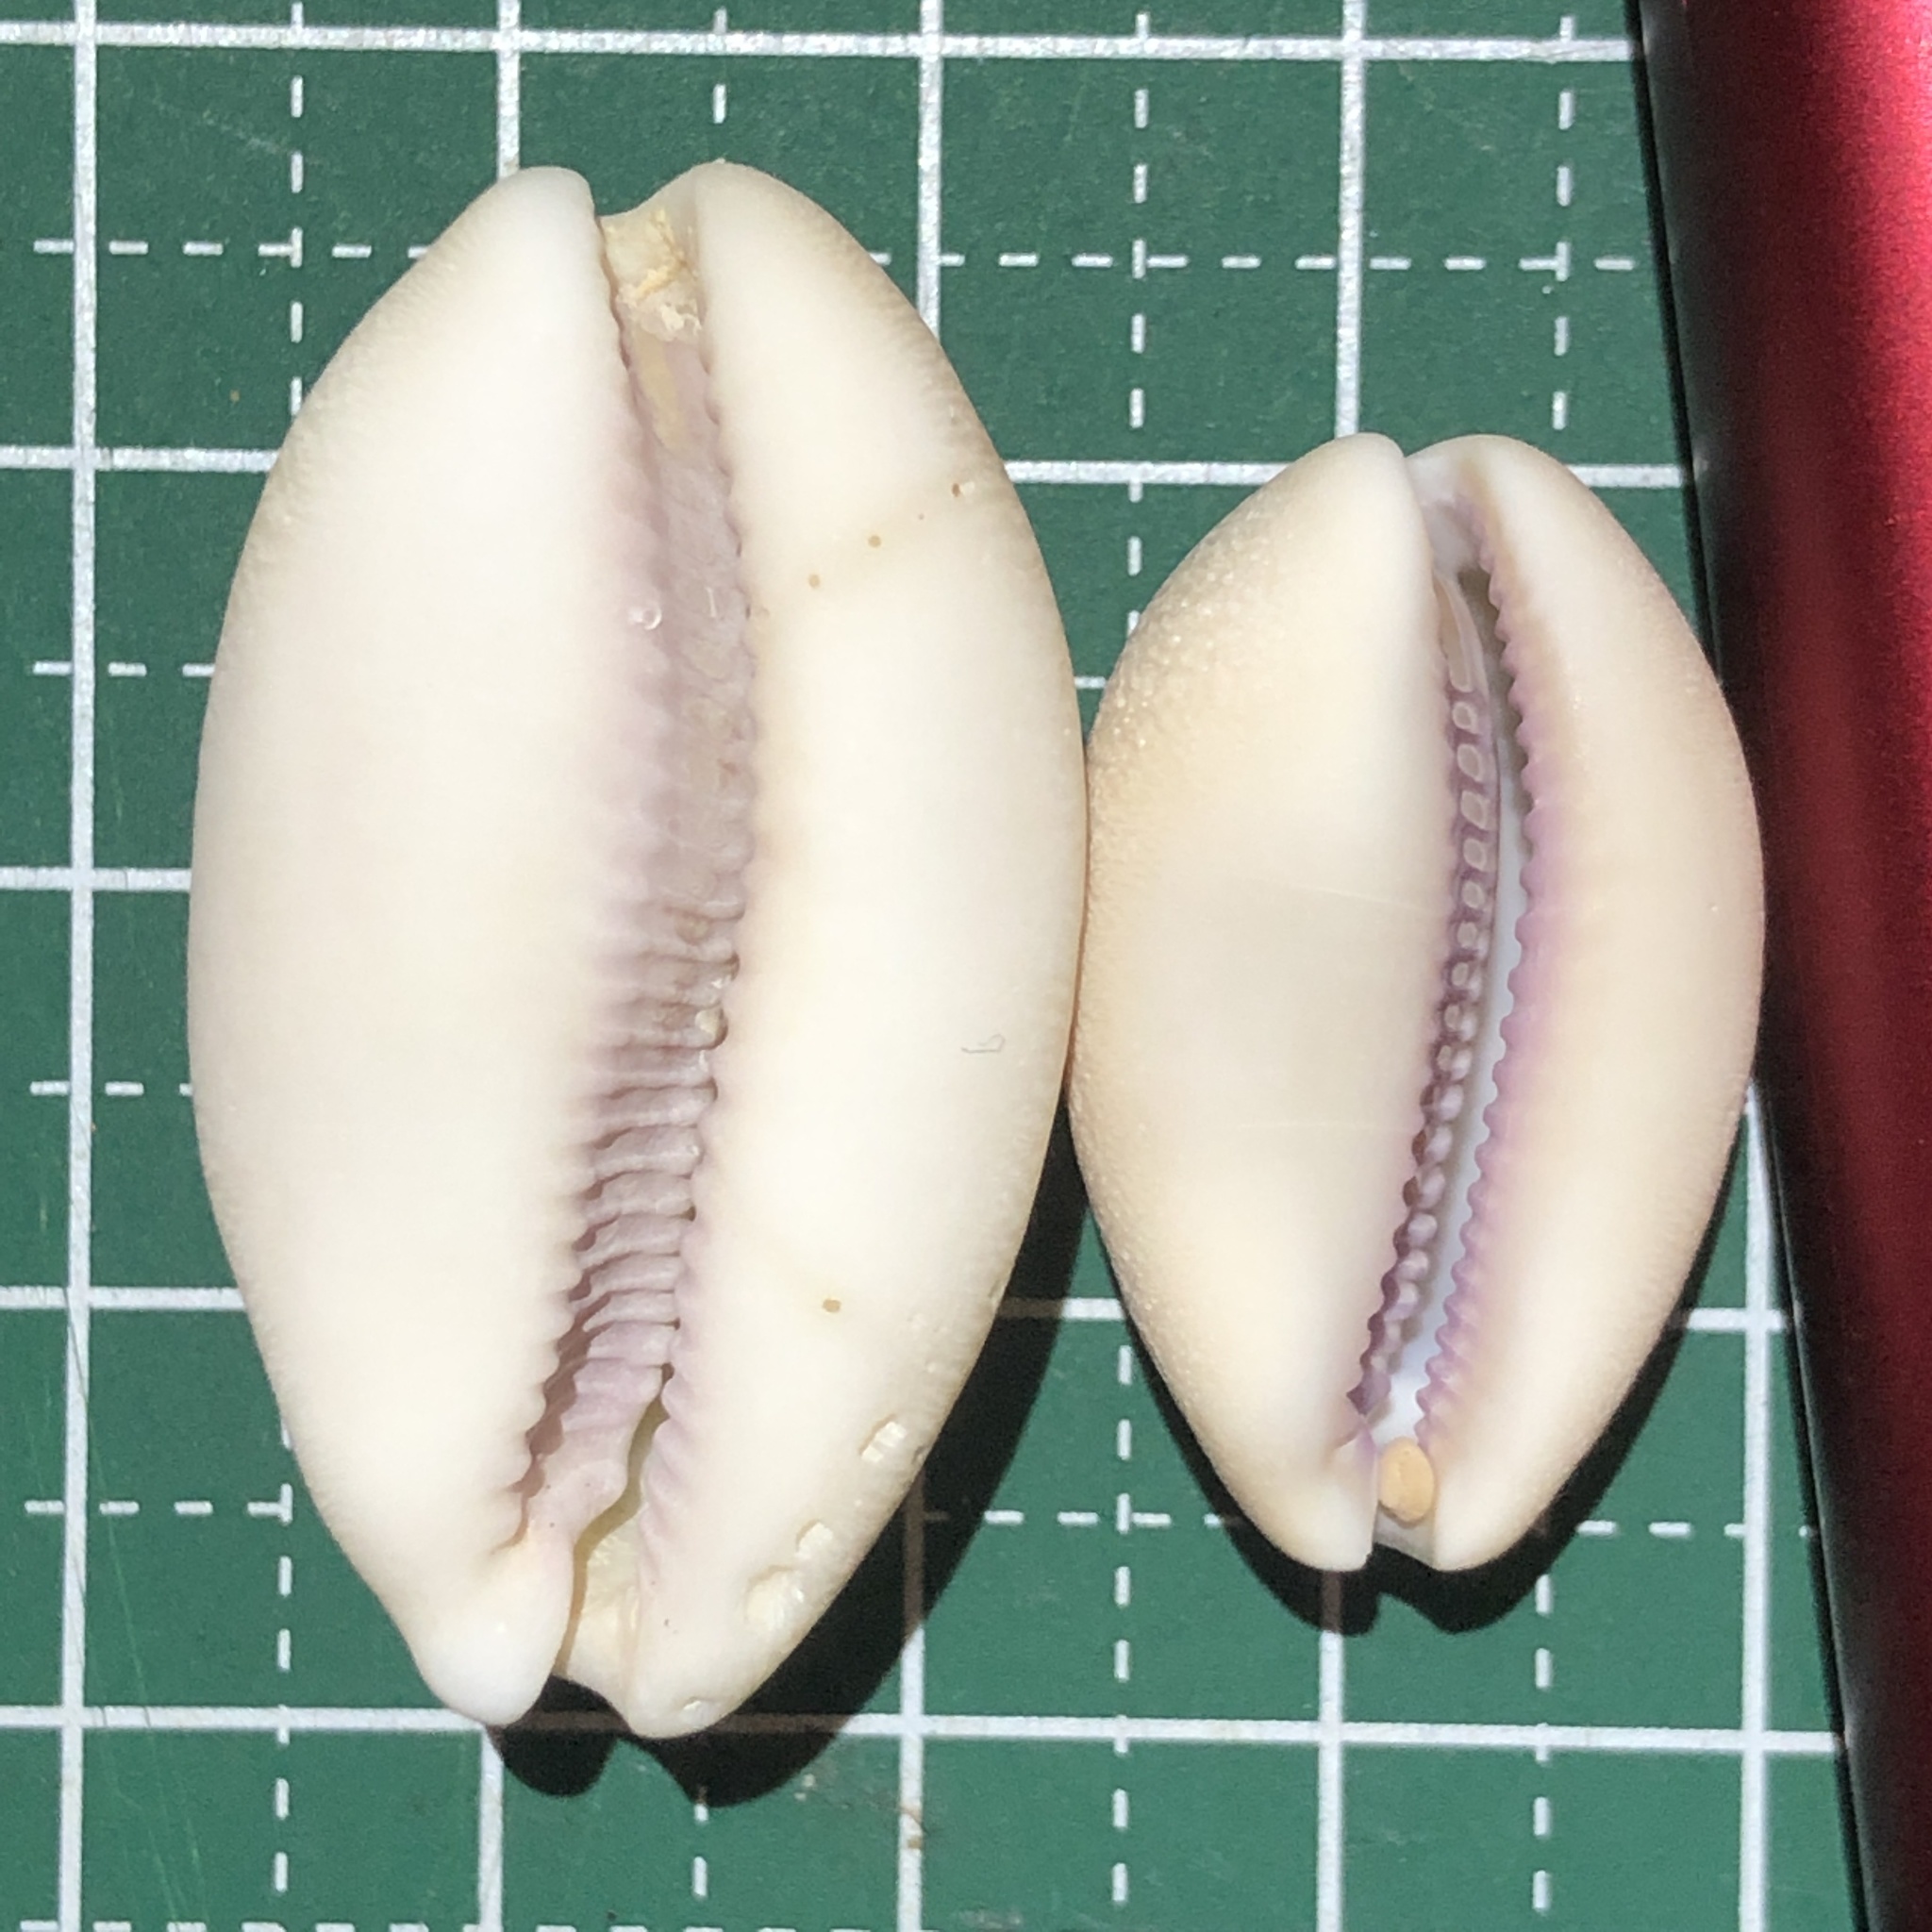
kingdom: Animalia
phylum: Mollusca
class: Gastropoda
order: Littorinimorpha
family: Cypraeidae
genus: Lyncina
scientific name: Lyncina carneola
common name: Purple-mouthed cowry
